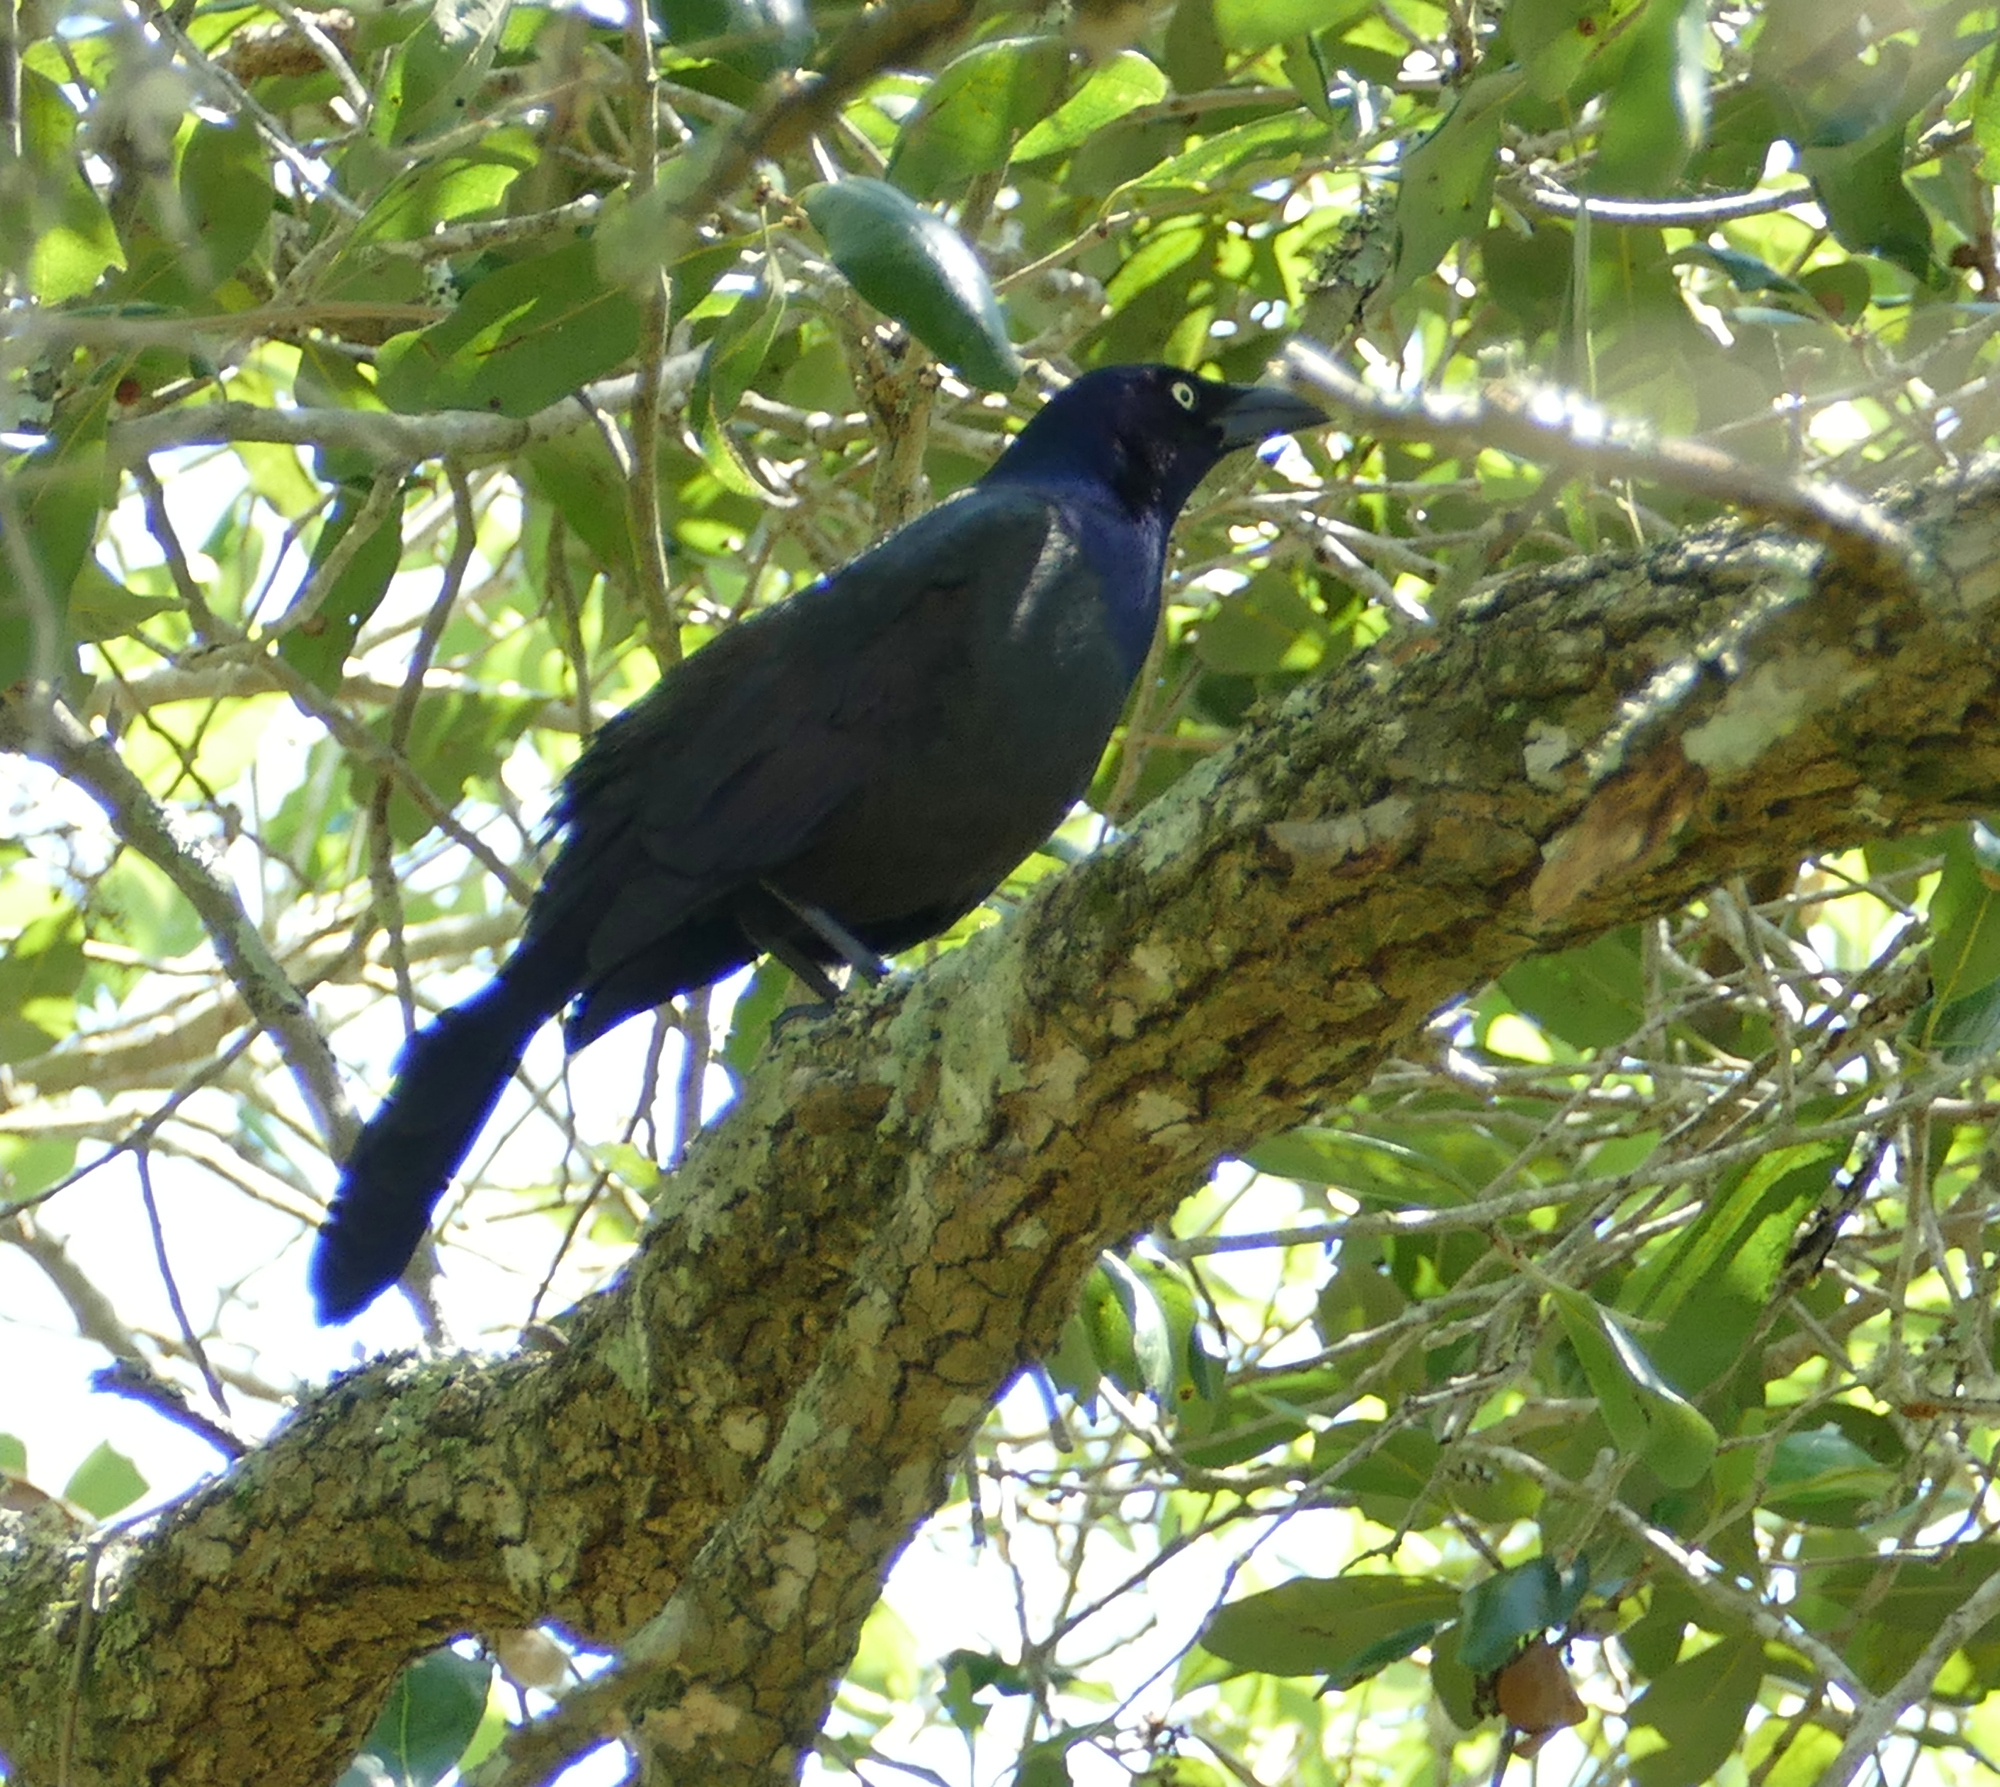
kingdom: Animalia
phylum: Chordata
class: Aves
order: Passeriformes
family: Icteridae
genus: Quiscalus
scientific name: Quiscalus quiscula
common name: Common grackle
